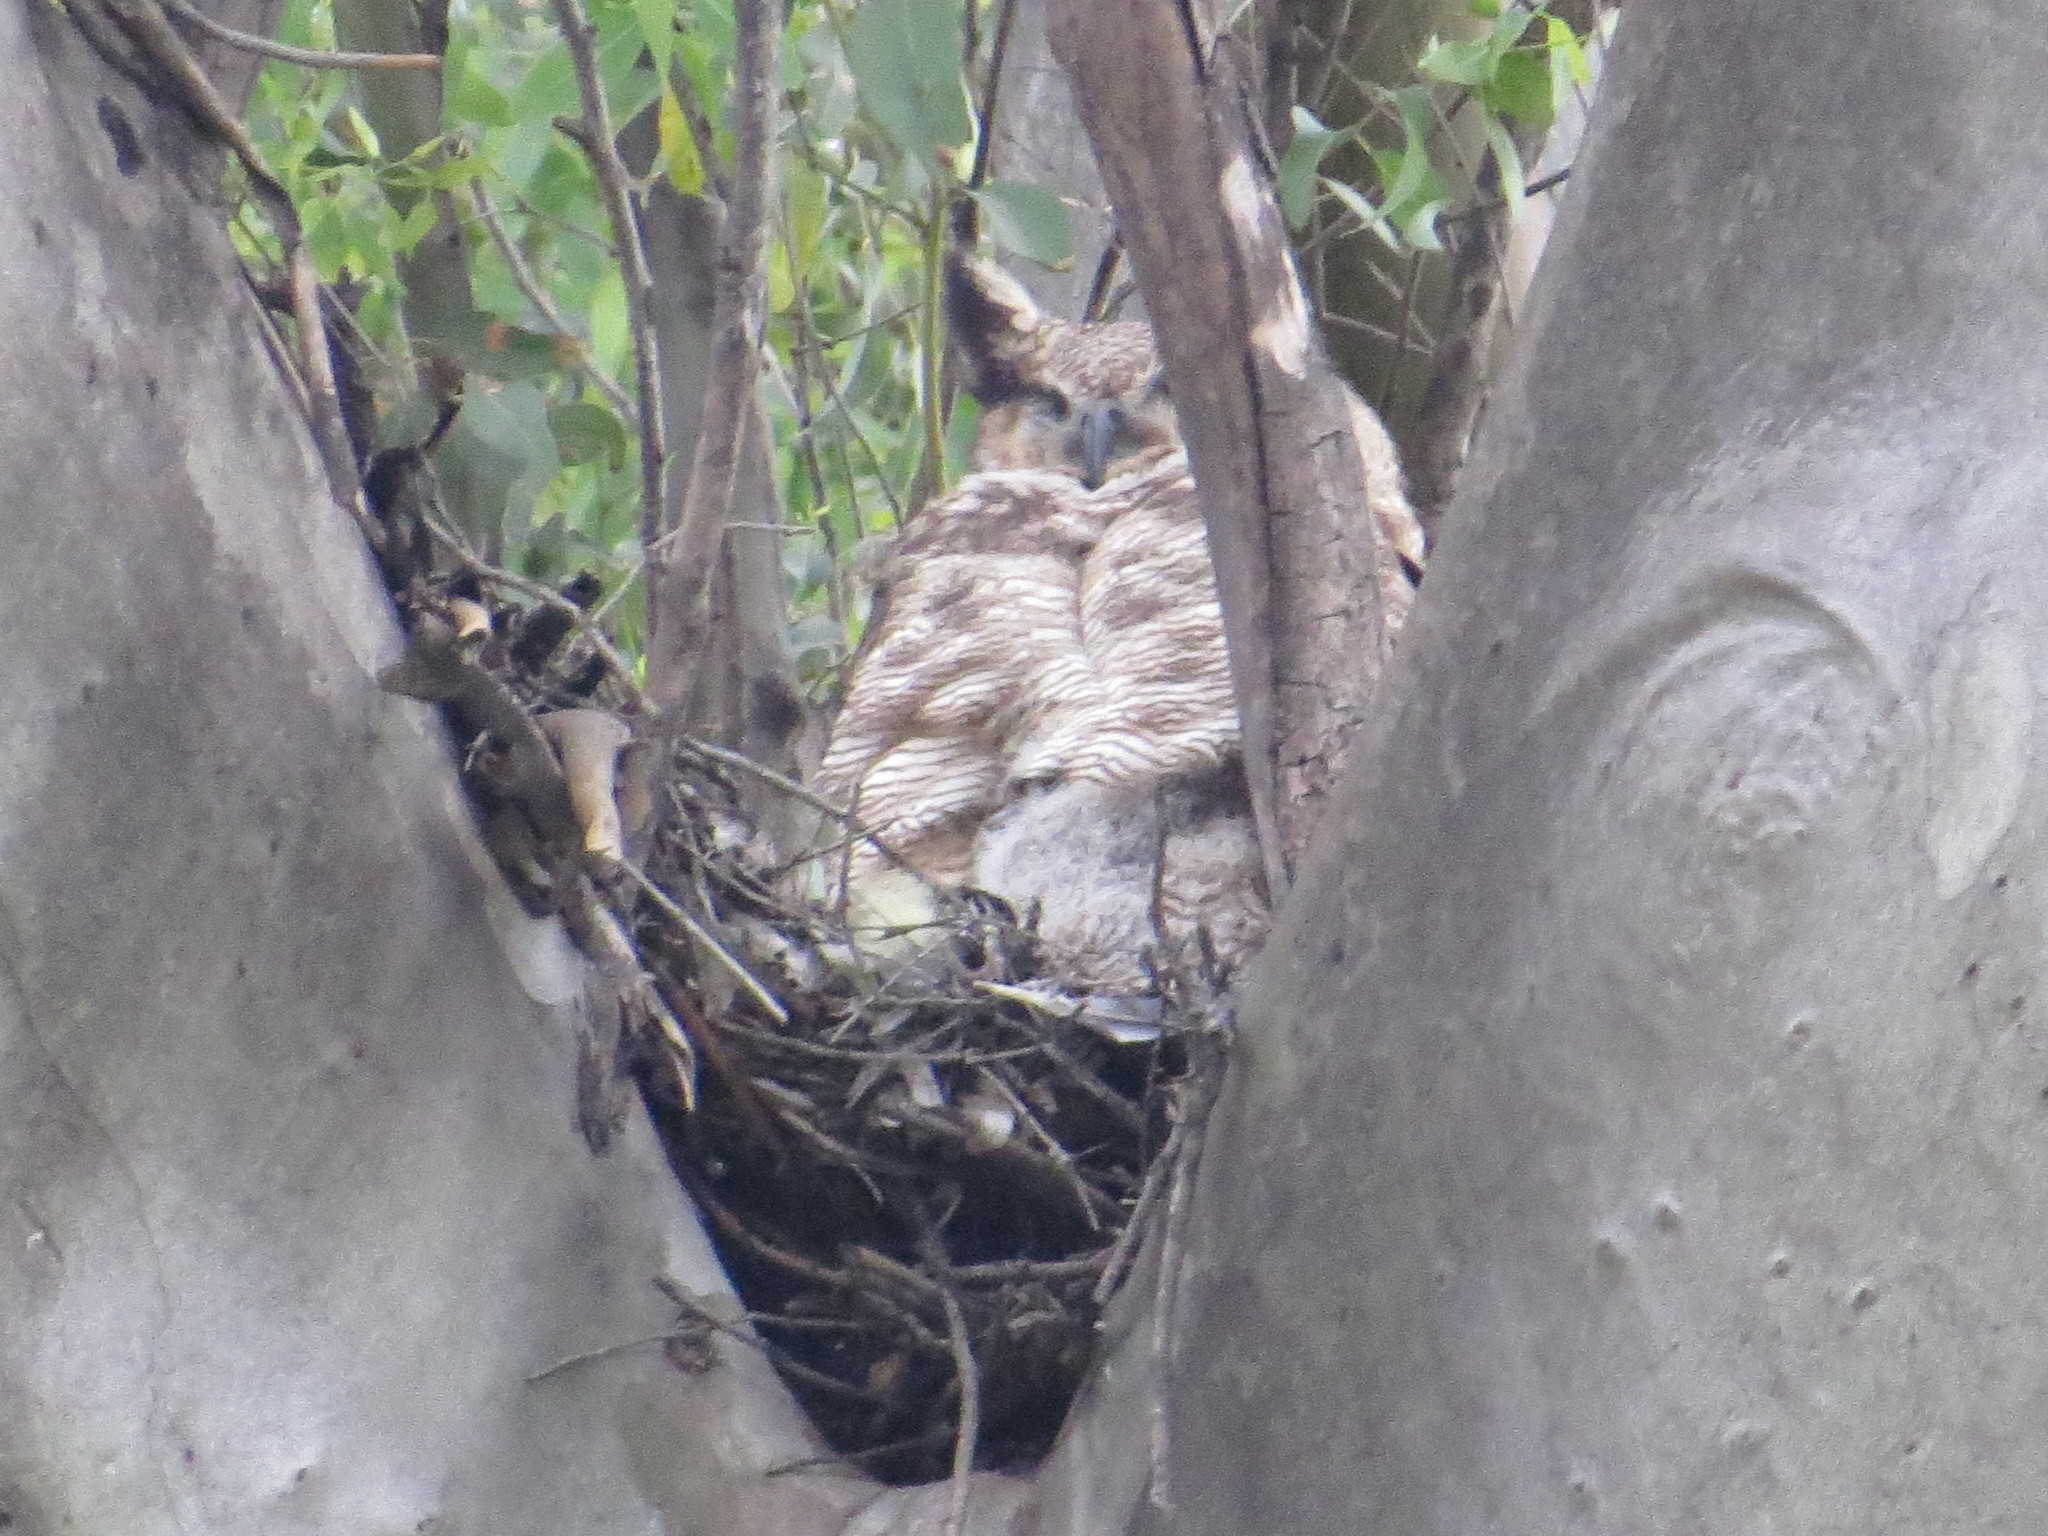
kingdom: Animalia
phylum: Chordata
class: Aves
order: Strigiformes
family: Strigidae
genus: Bubo
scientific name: Bubo virginianus
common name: Great horned owl
